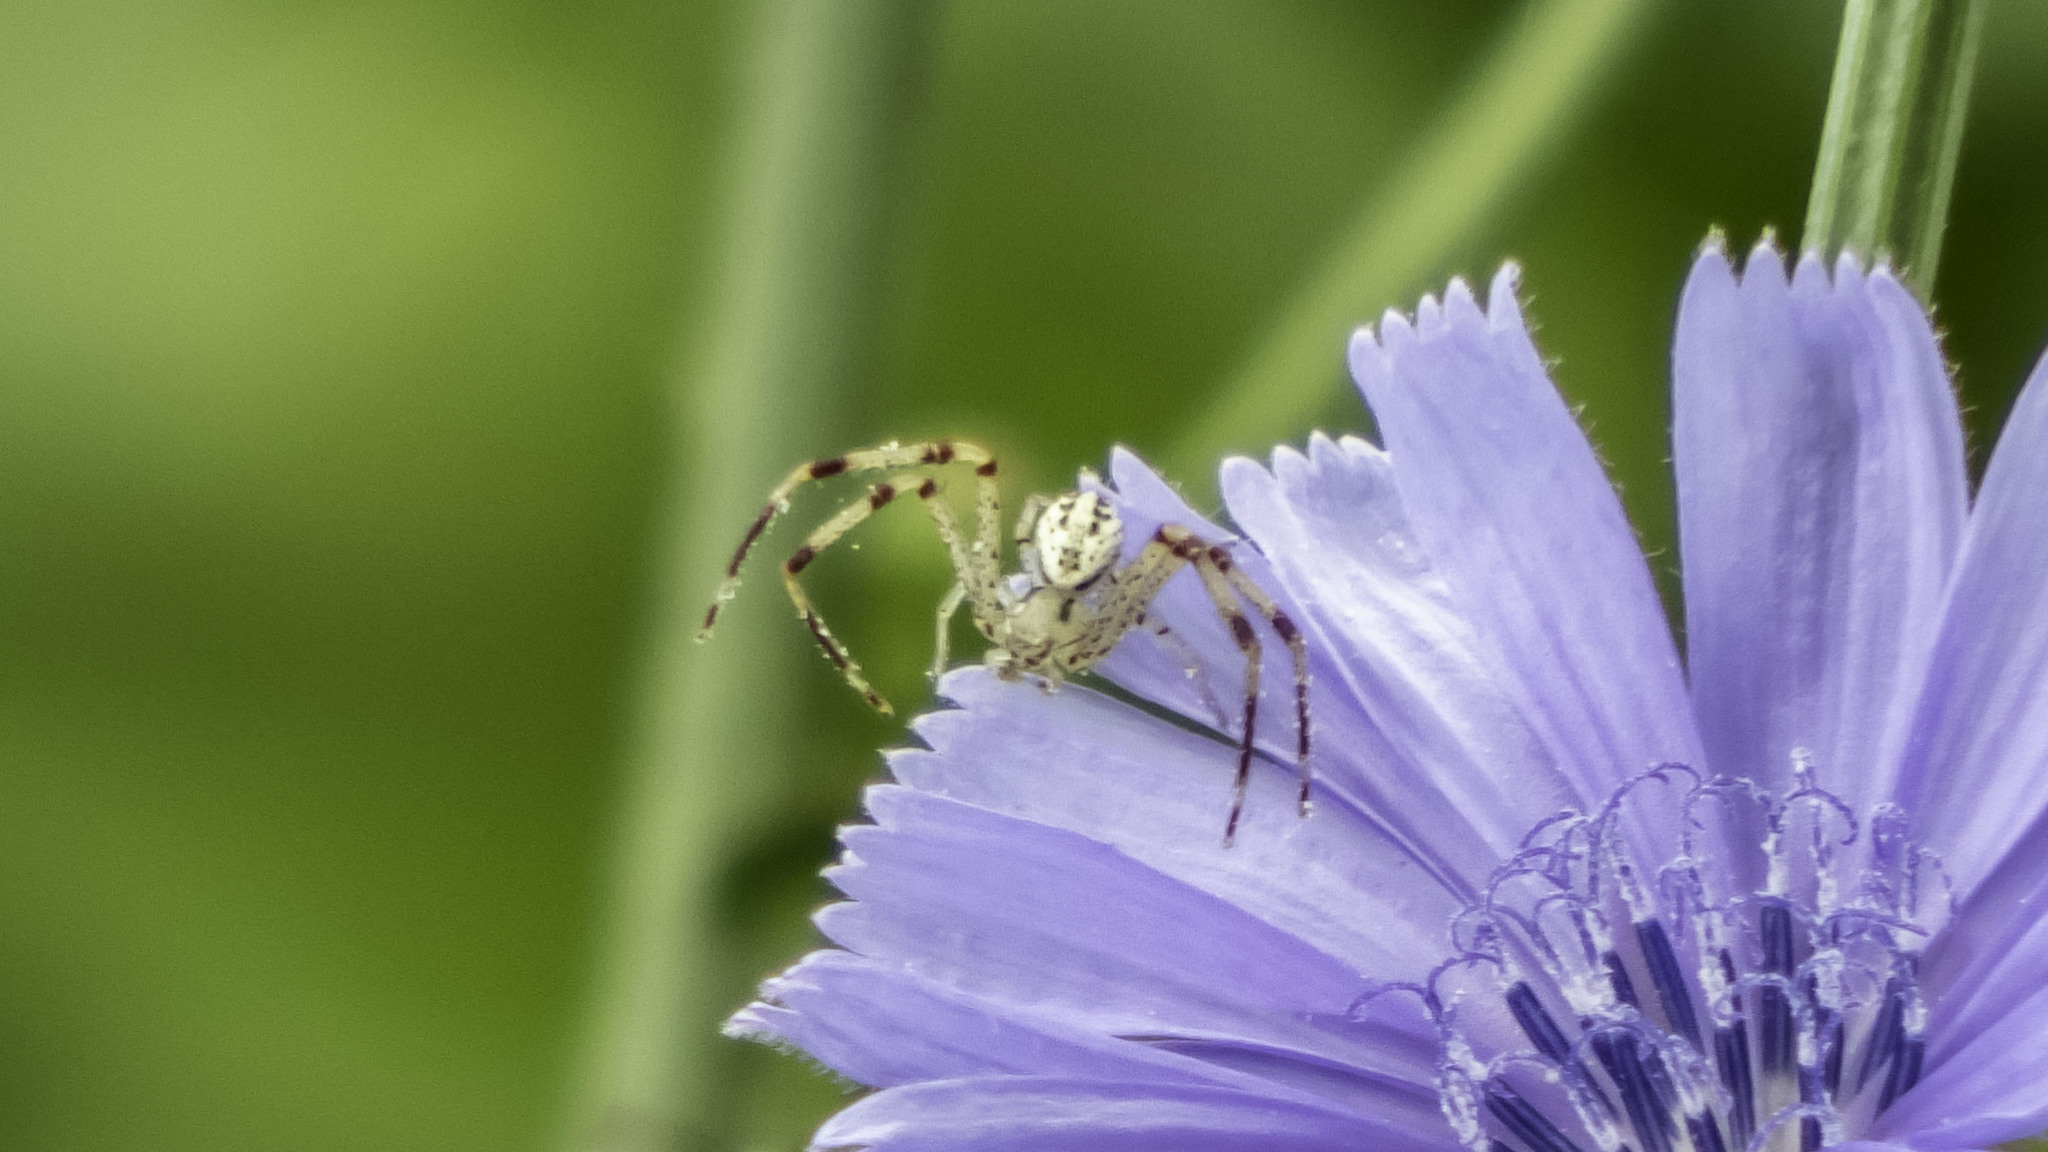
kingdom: Animalia
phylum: Arthropoda
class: Arachnida
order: Araneae
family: Thomisidae
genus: Mecaphesa
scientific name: Mecaphesa celer
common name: Crab spiders
